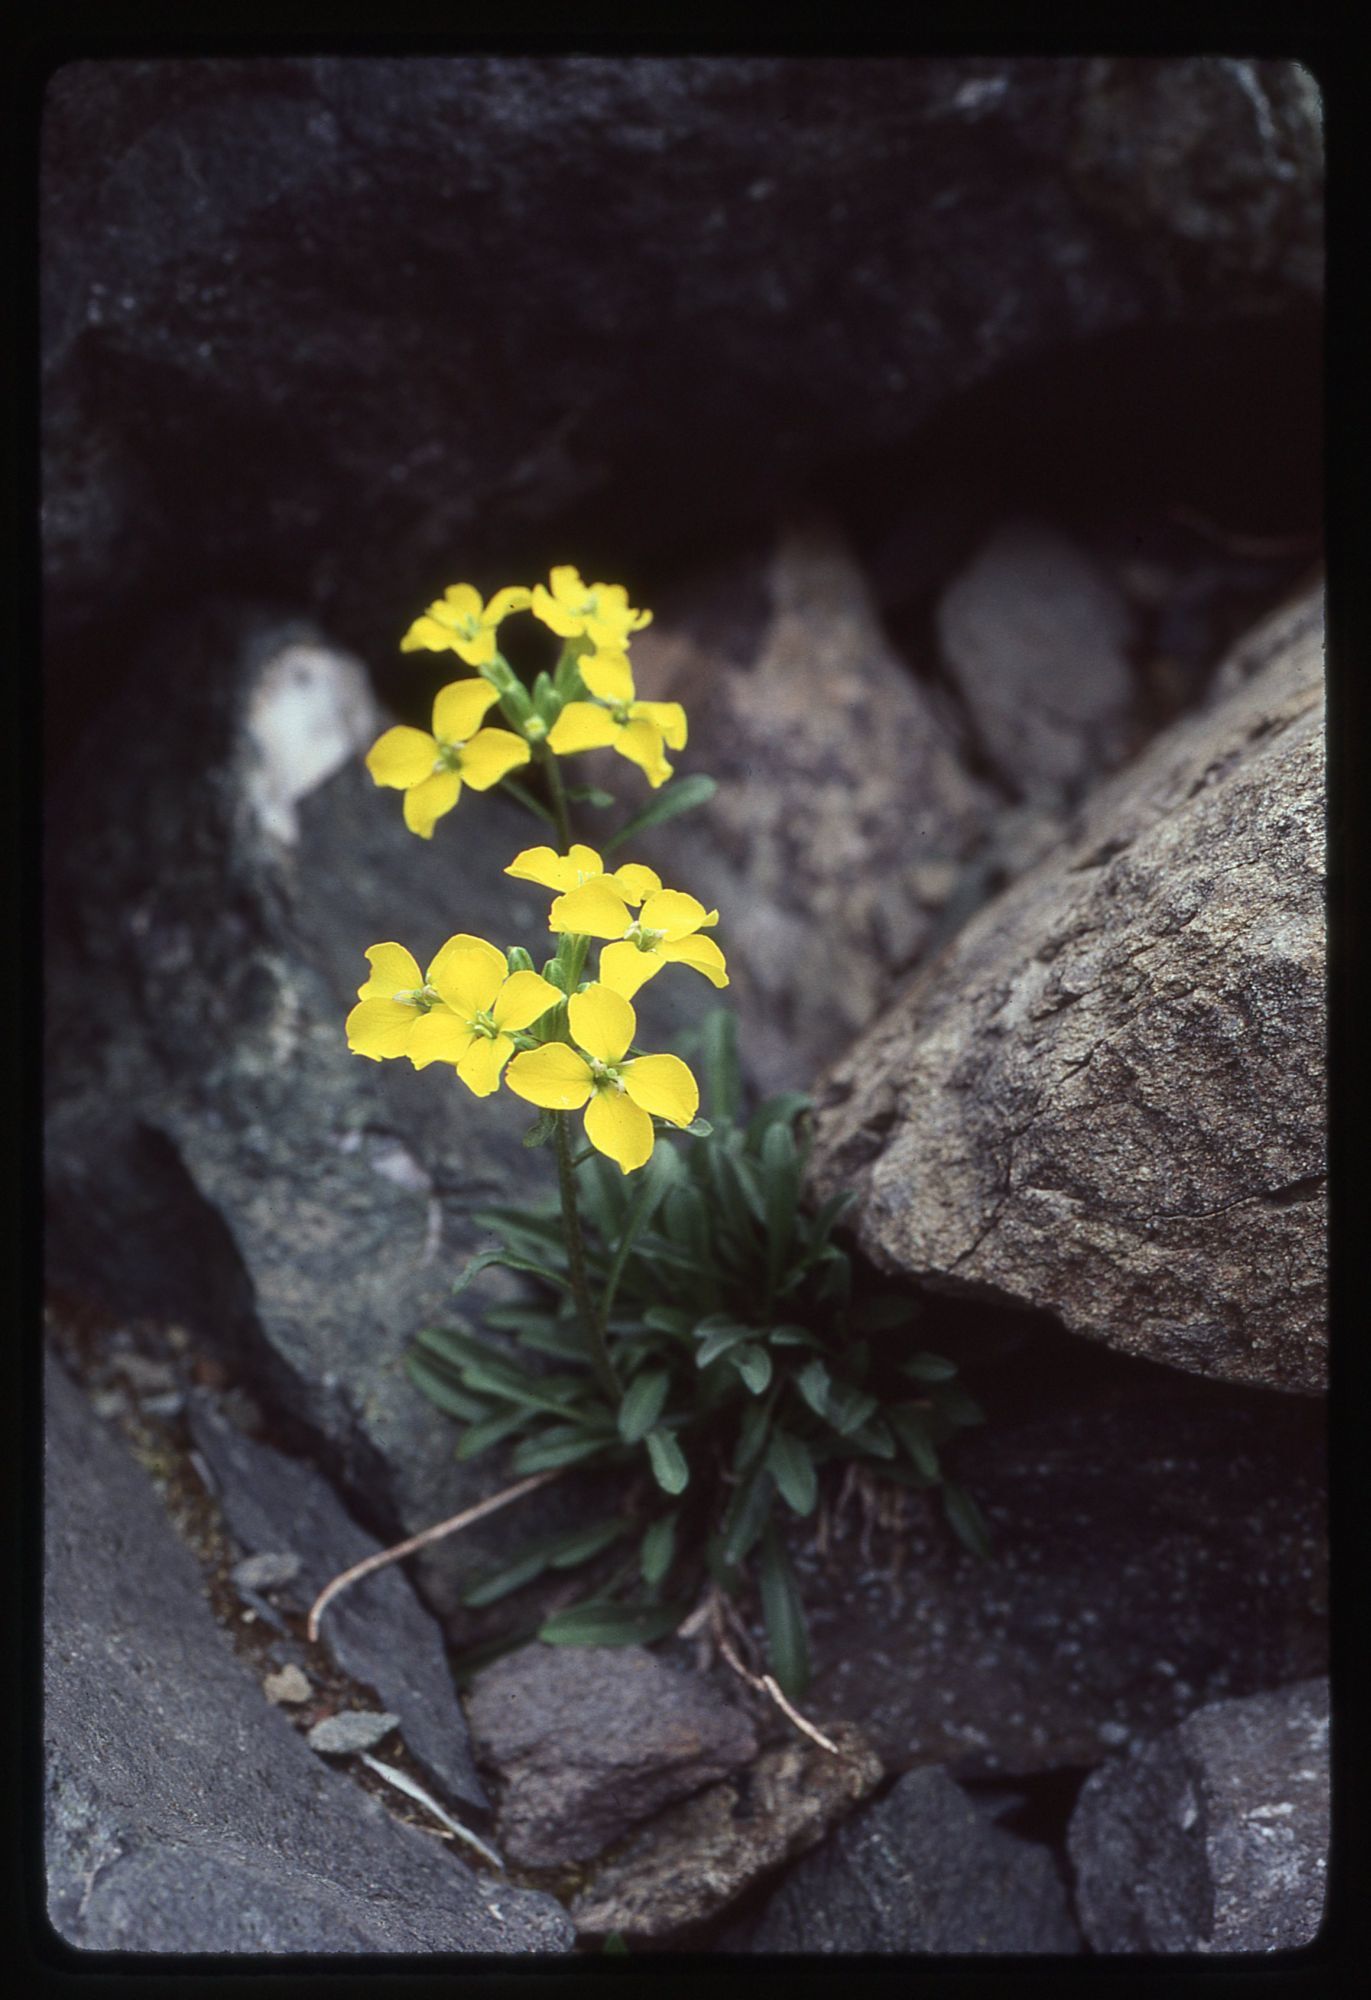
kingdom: Plantae
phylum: Tracheophyta
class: Magnoliopsida
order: Brassicales
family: Brassicaceae
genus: Erysimum
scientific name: Erysimum arenicola
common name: Cascade wallflower
